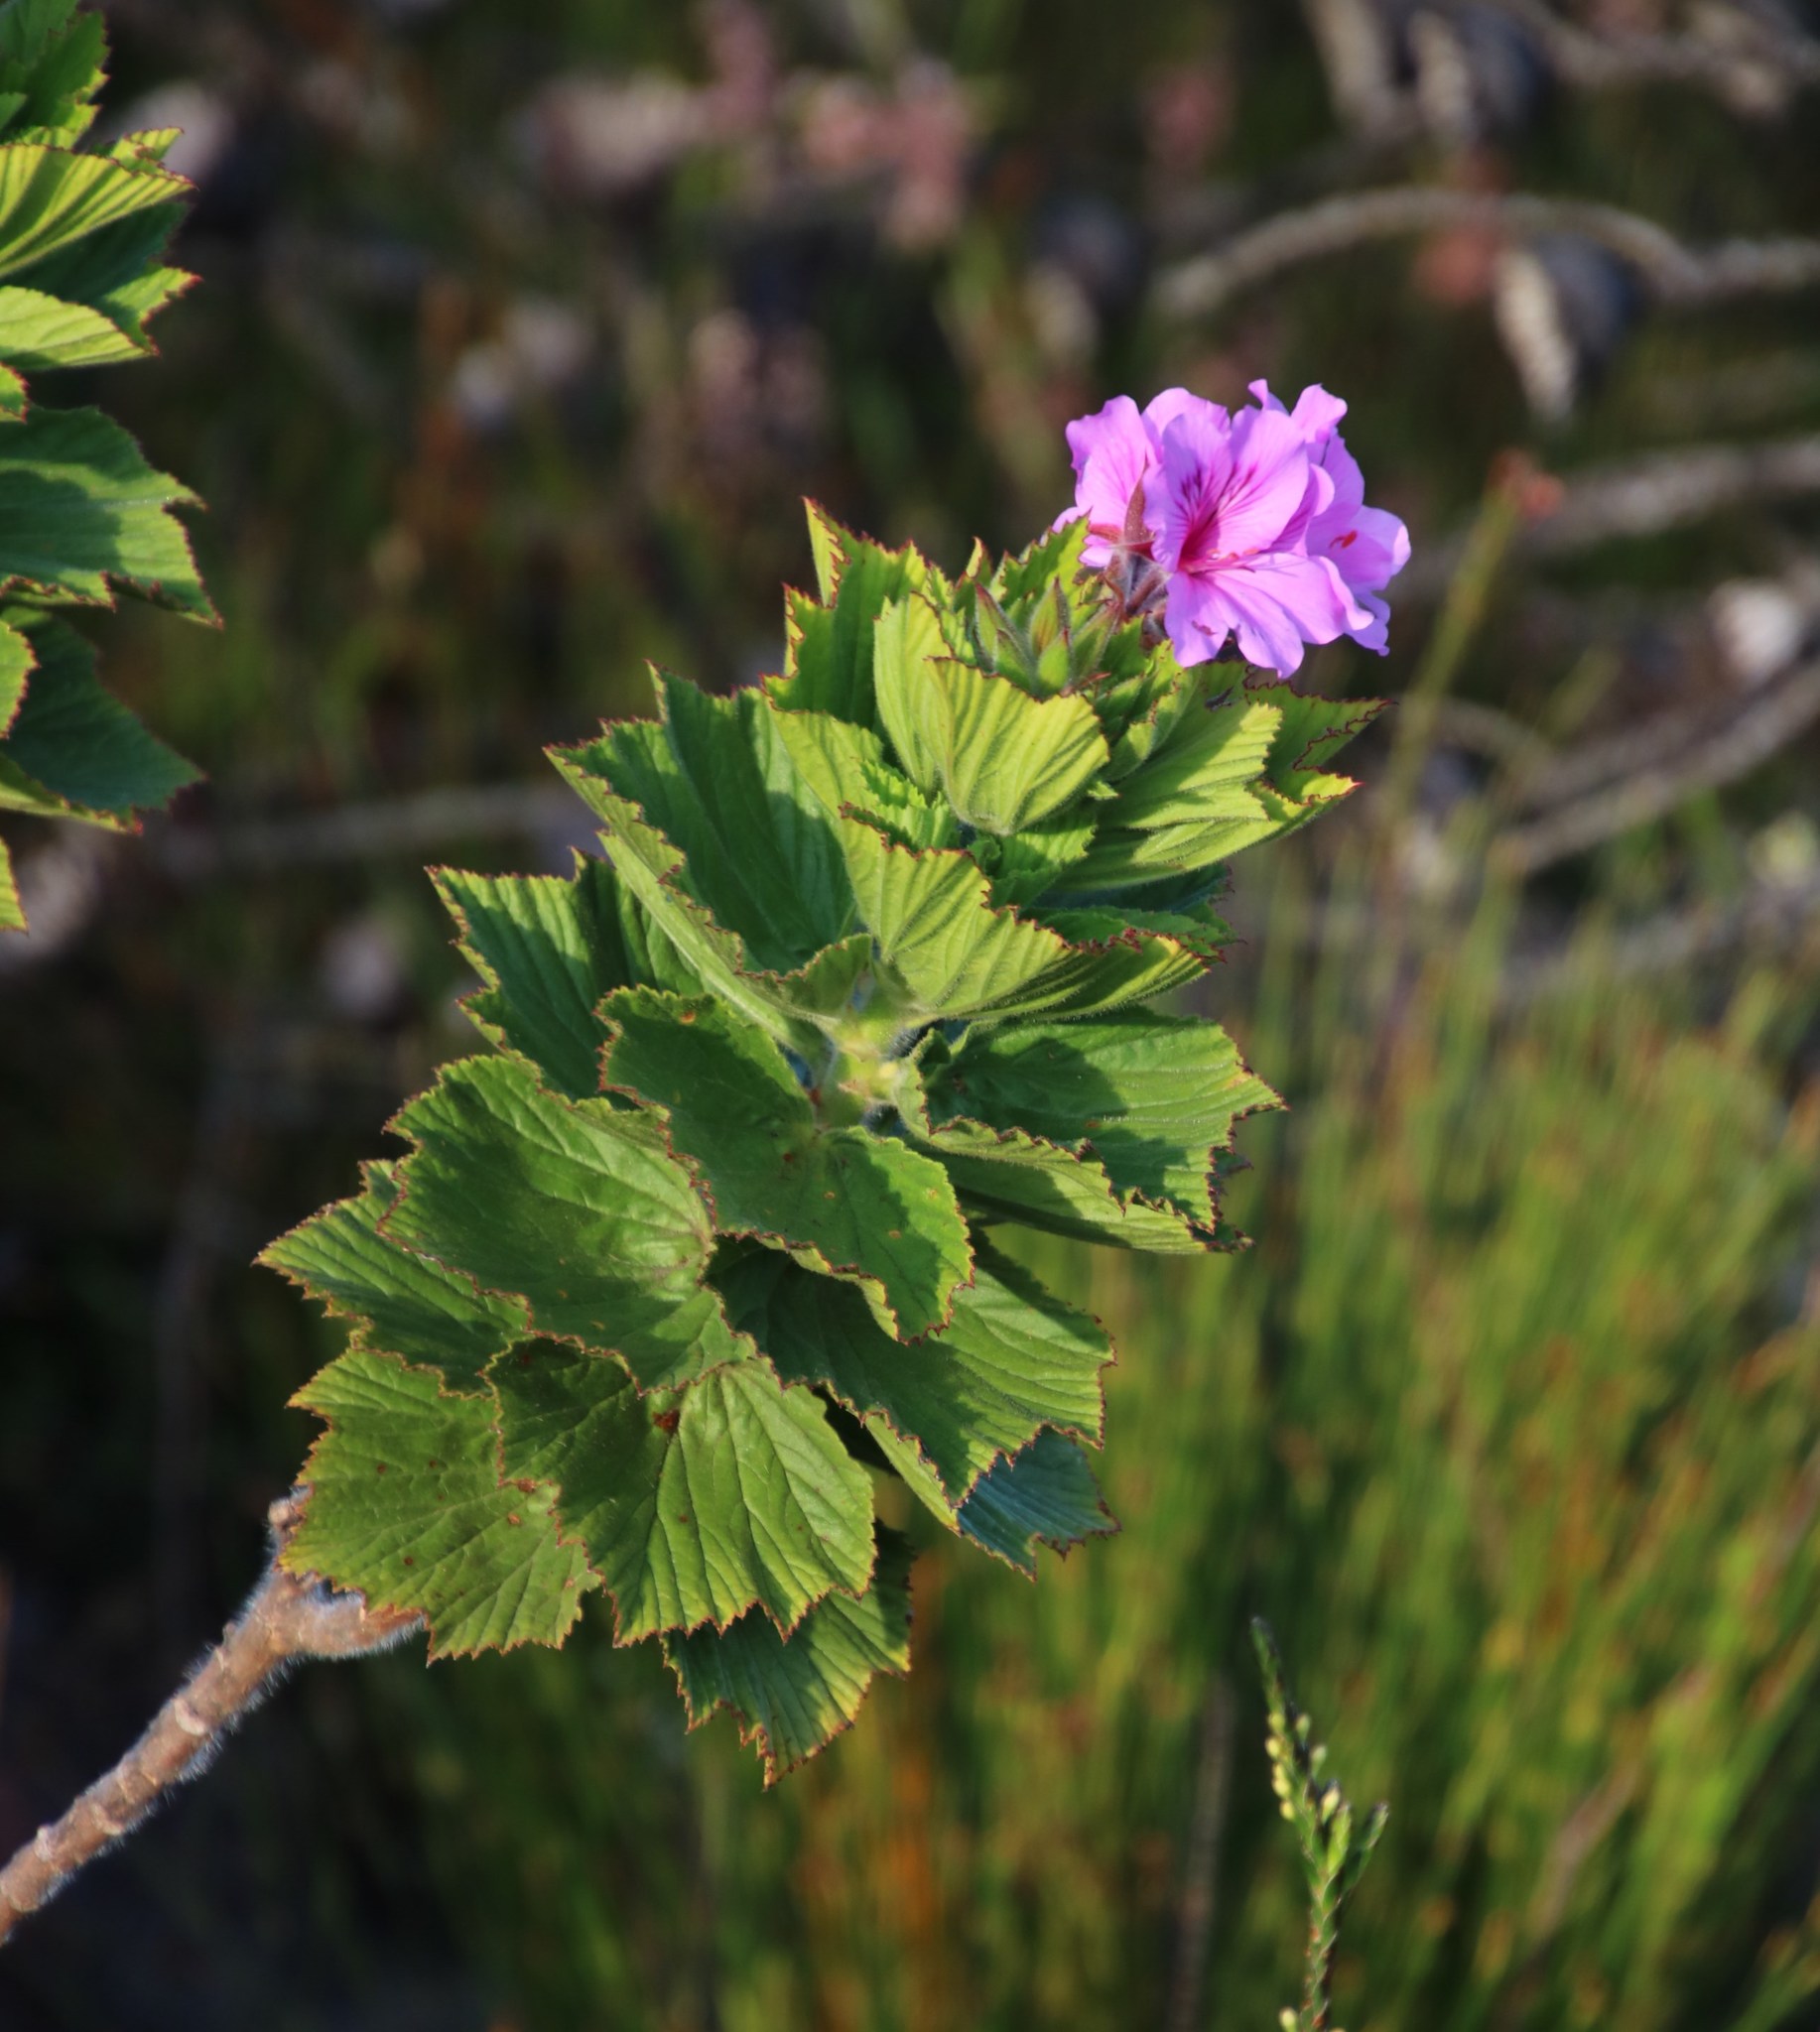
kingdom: Plantae
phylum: Tracheophyta
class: Magnoliopsida
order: Geraniales
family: Geraniaceae
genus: Pelargonium
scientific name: Pelargonium cucullatum
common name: Tree pelargonium
